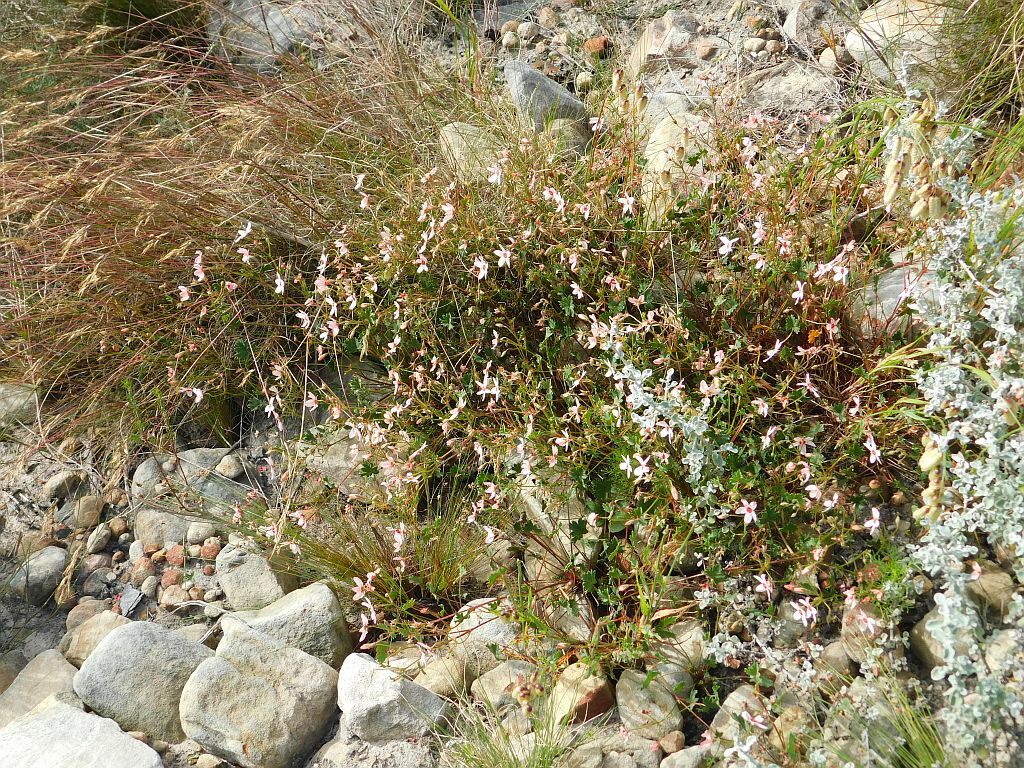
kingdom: Plantae
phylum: Tracheophyta
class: Magnoliopsida
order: Geraniales
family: Geraniaceae
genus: Pelargonium
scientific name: Pelargonium incarnatum
